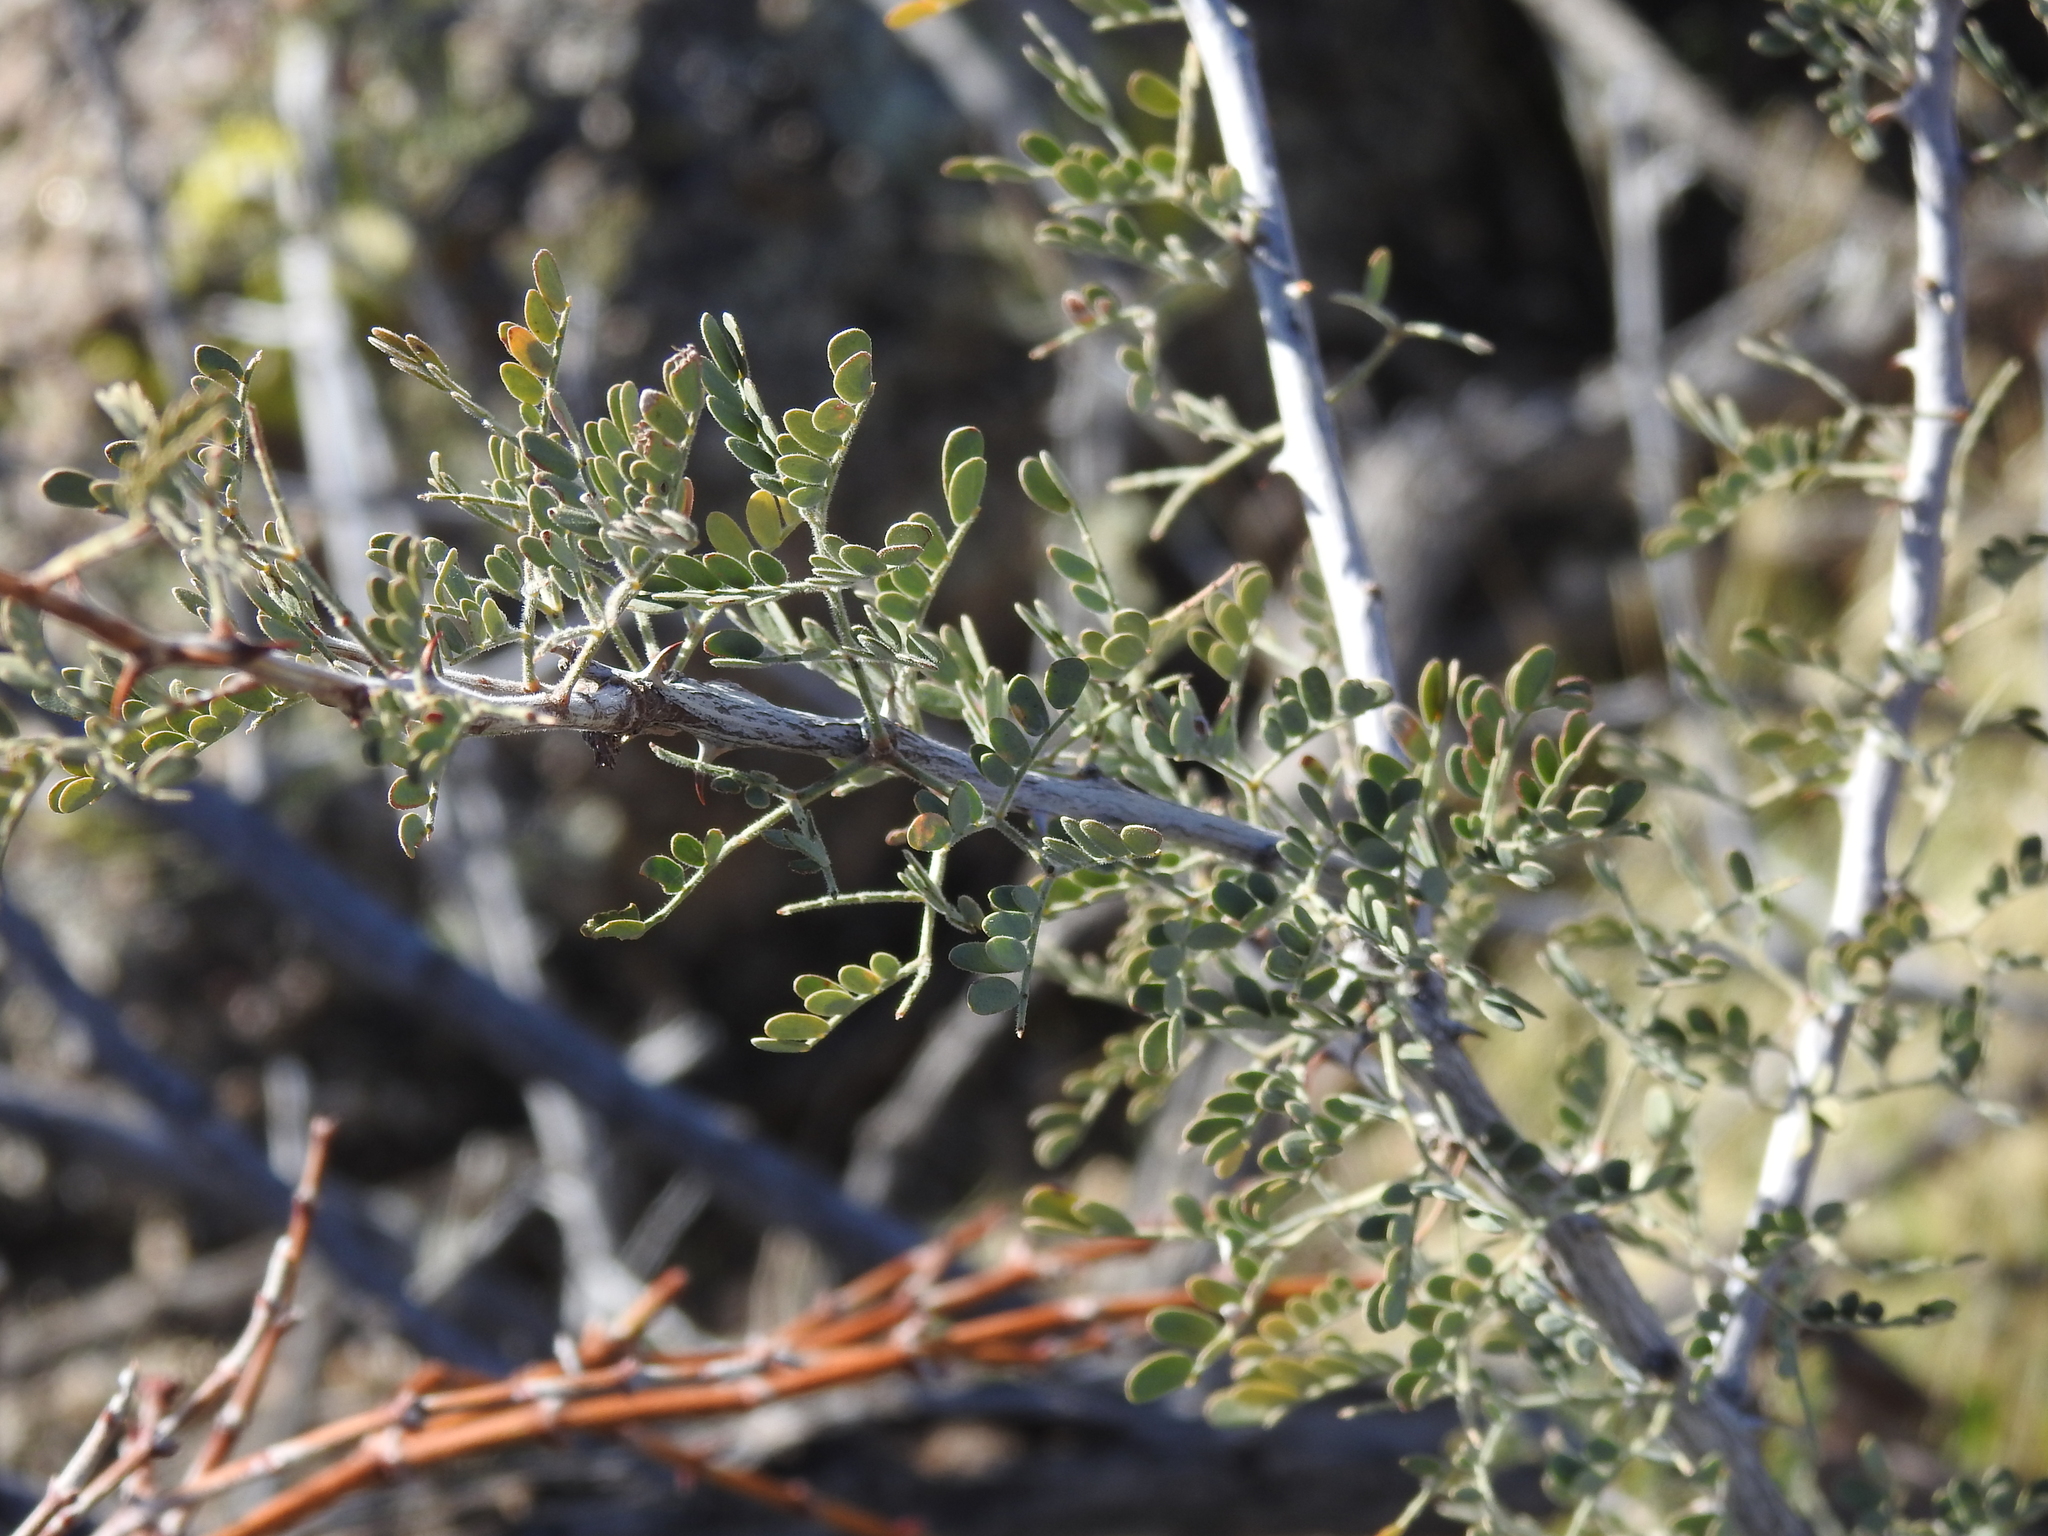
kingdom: Plantae
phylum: Tracheophyta
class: Magnoliopsida
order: Fabales
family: Fabaceae
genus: Senegalia
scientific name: Senegalia greggii
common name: Texas-mimosa
